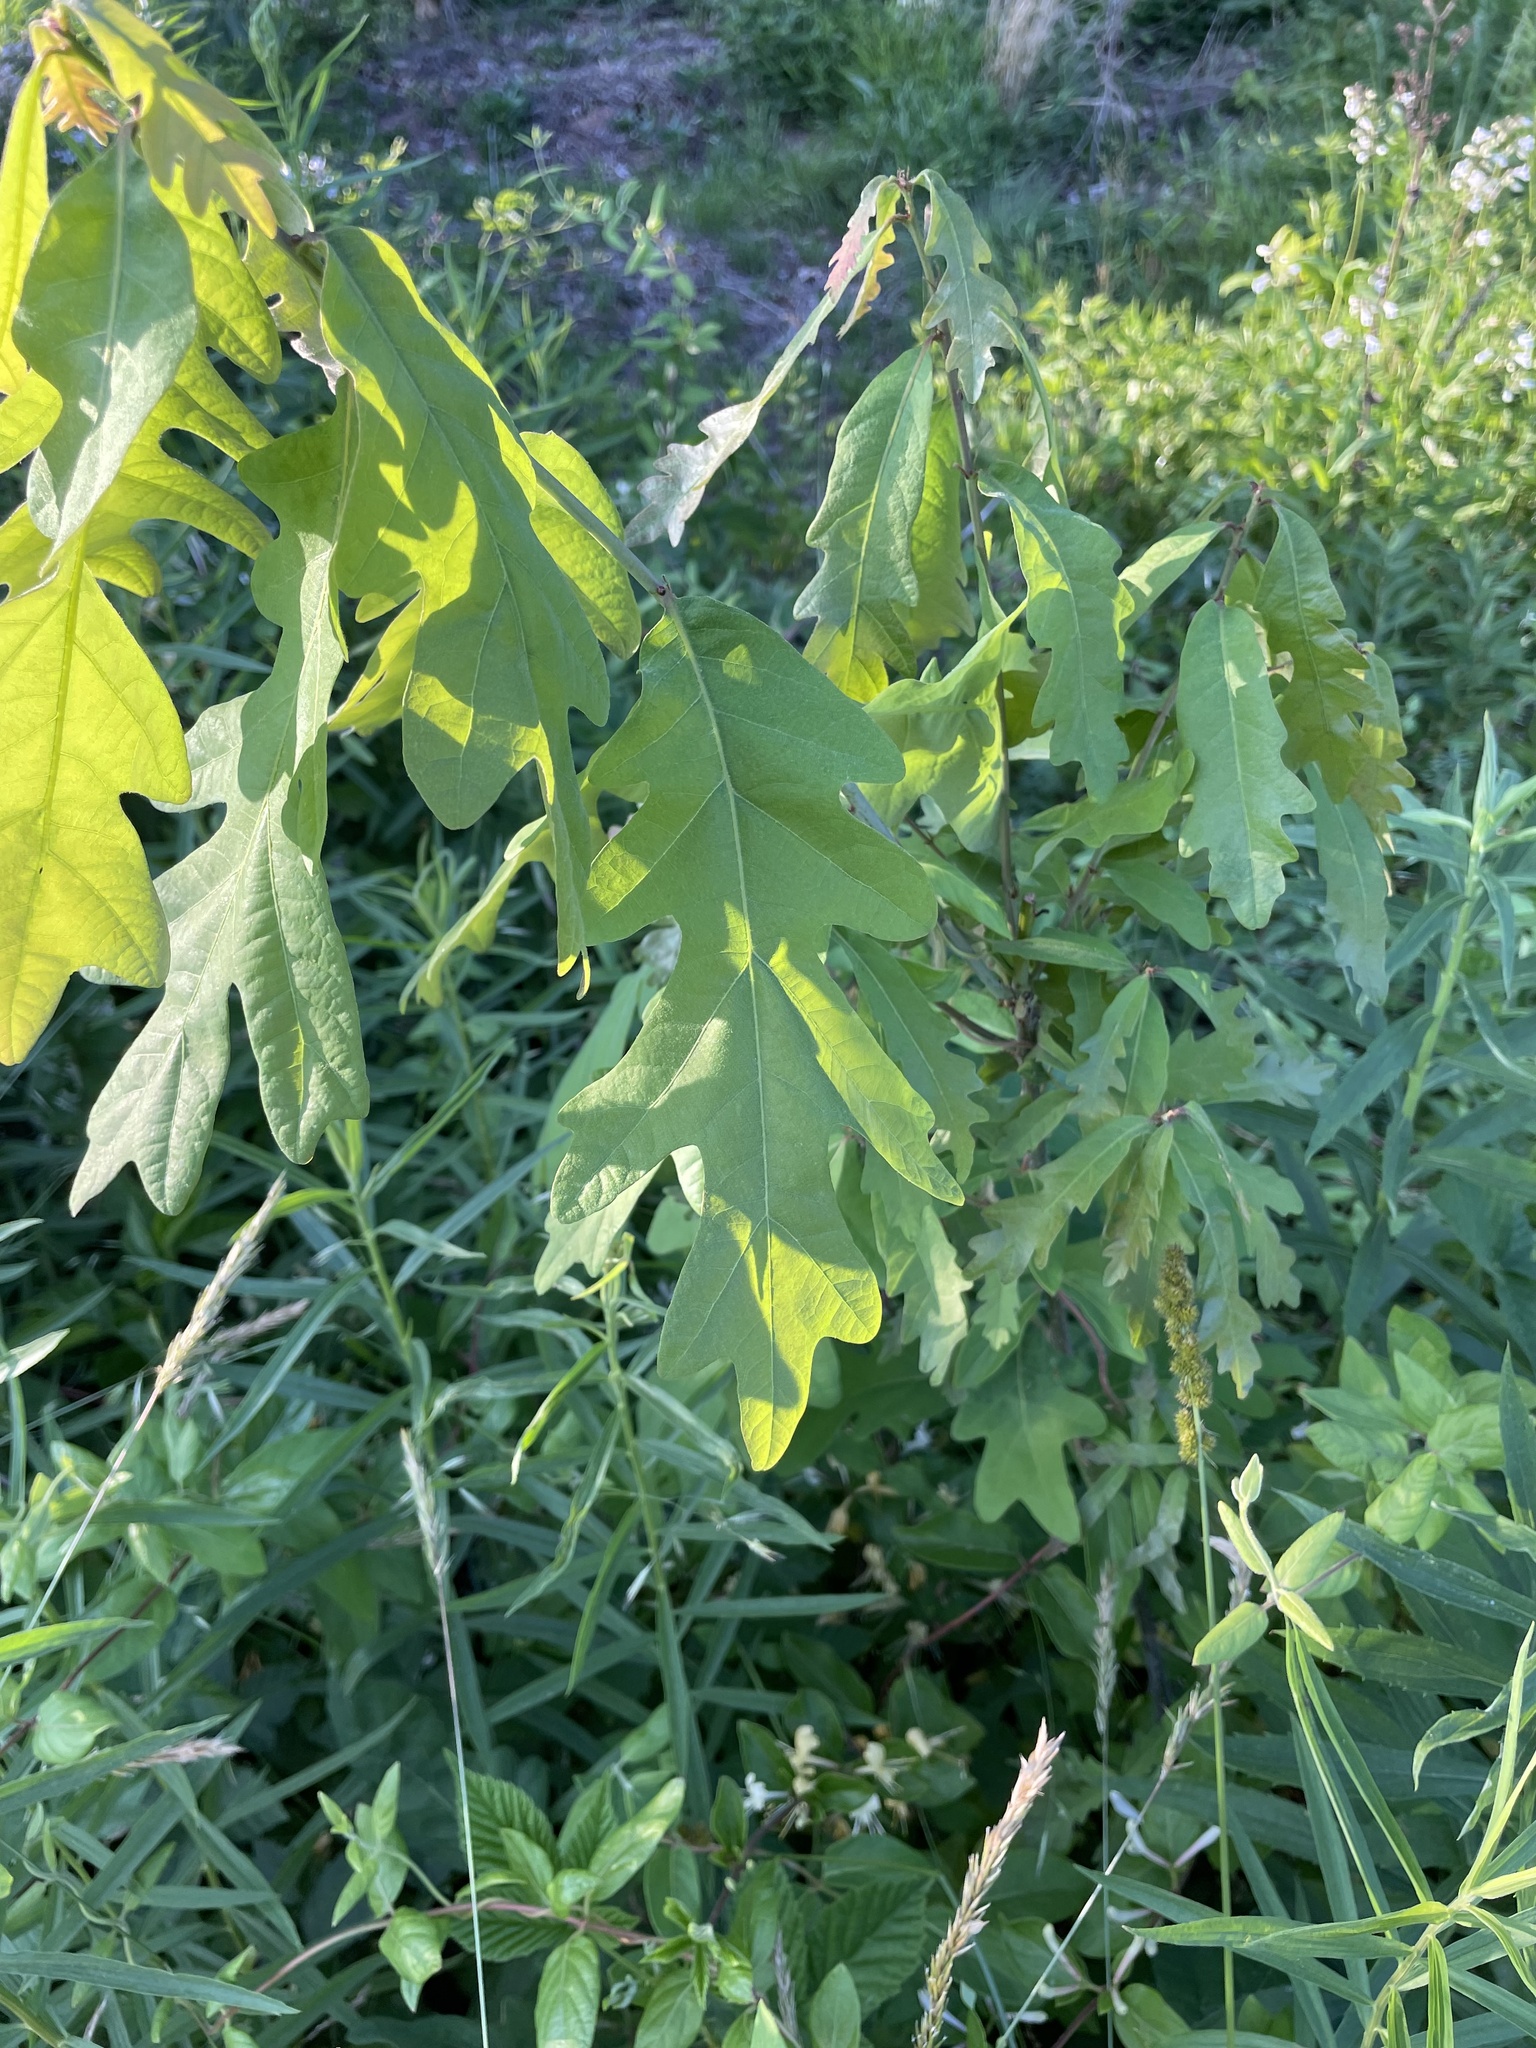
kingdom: Plantae
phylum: Tracheophyta
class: Magnoliopsida
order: Fagales
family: Fagaceae
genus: Quercus
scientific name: Quercus alba
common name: White oak
